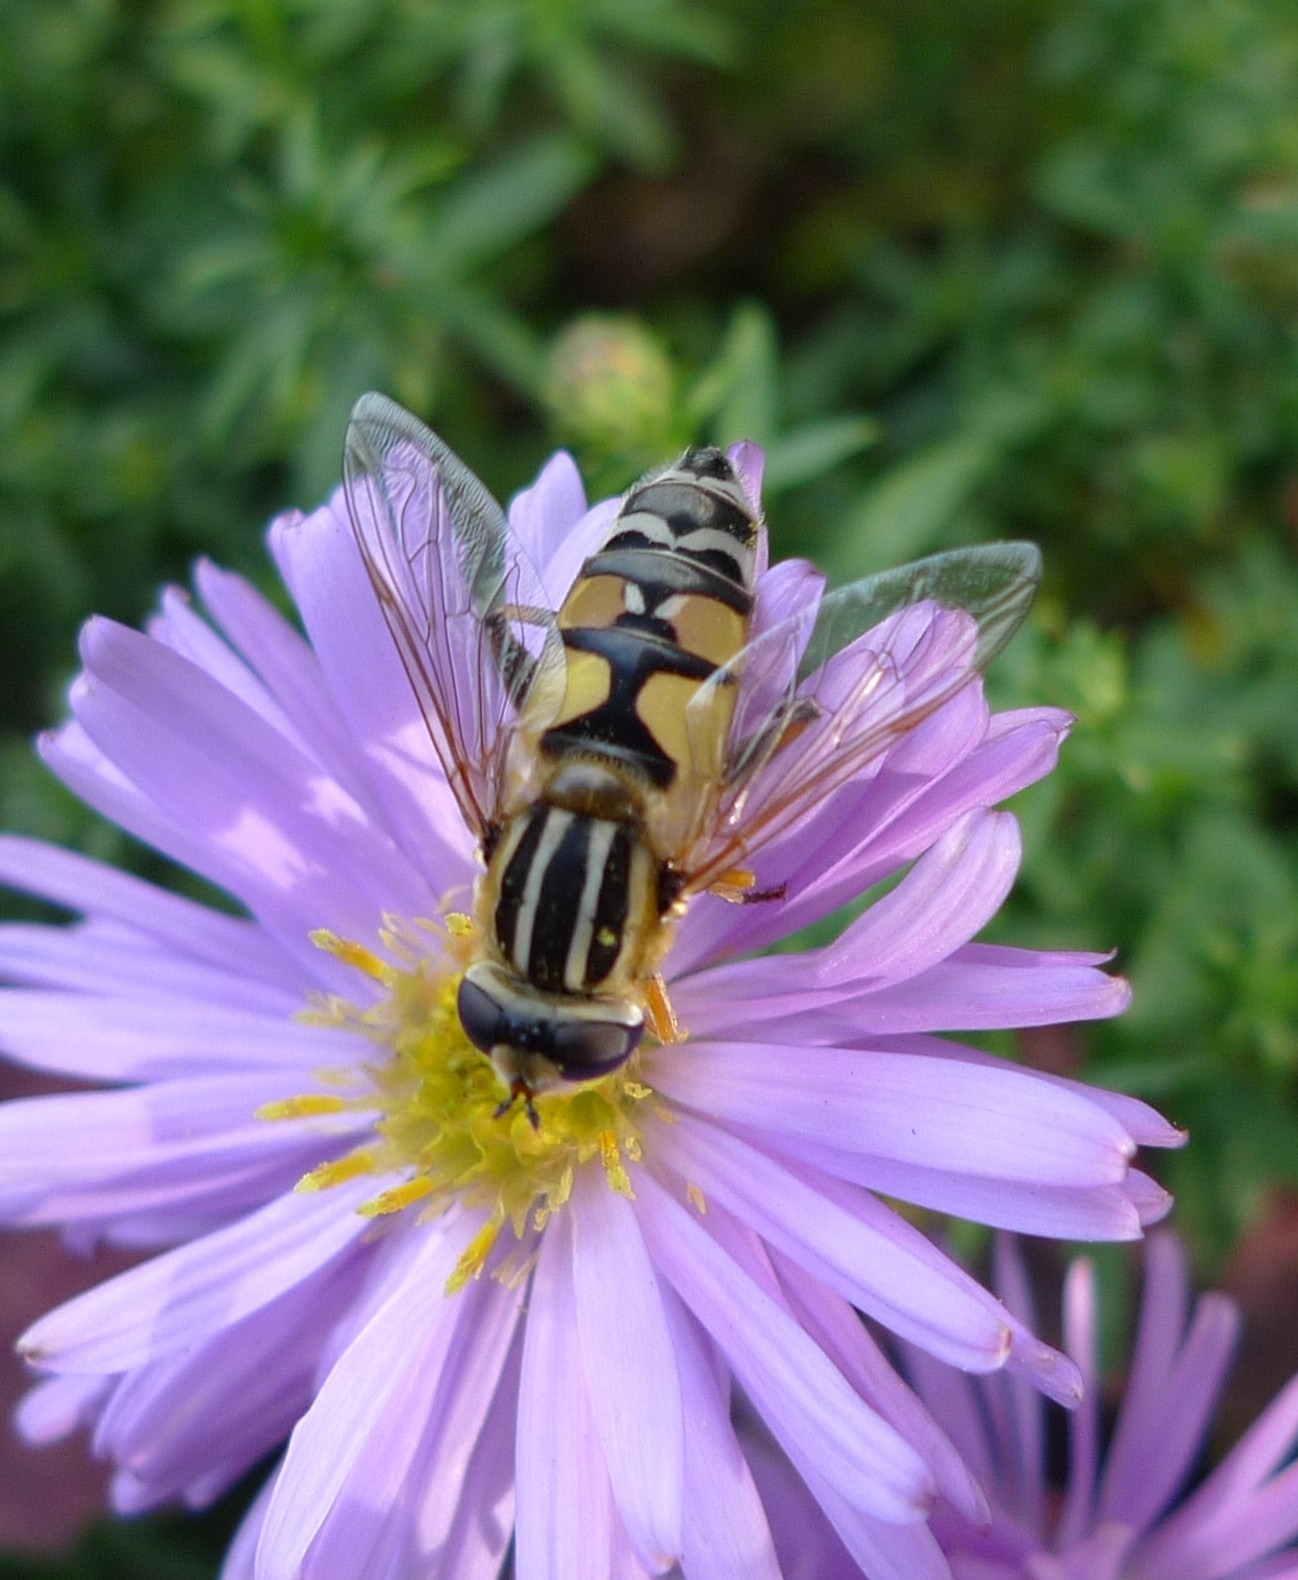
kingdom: Animalia
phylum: Arthropoda
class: Insecta
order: Diptera
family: Syrphidae
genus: Helophilus
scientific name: Helophilus trivittatus
